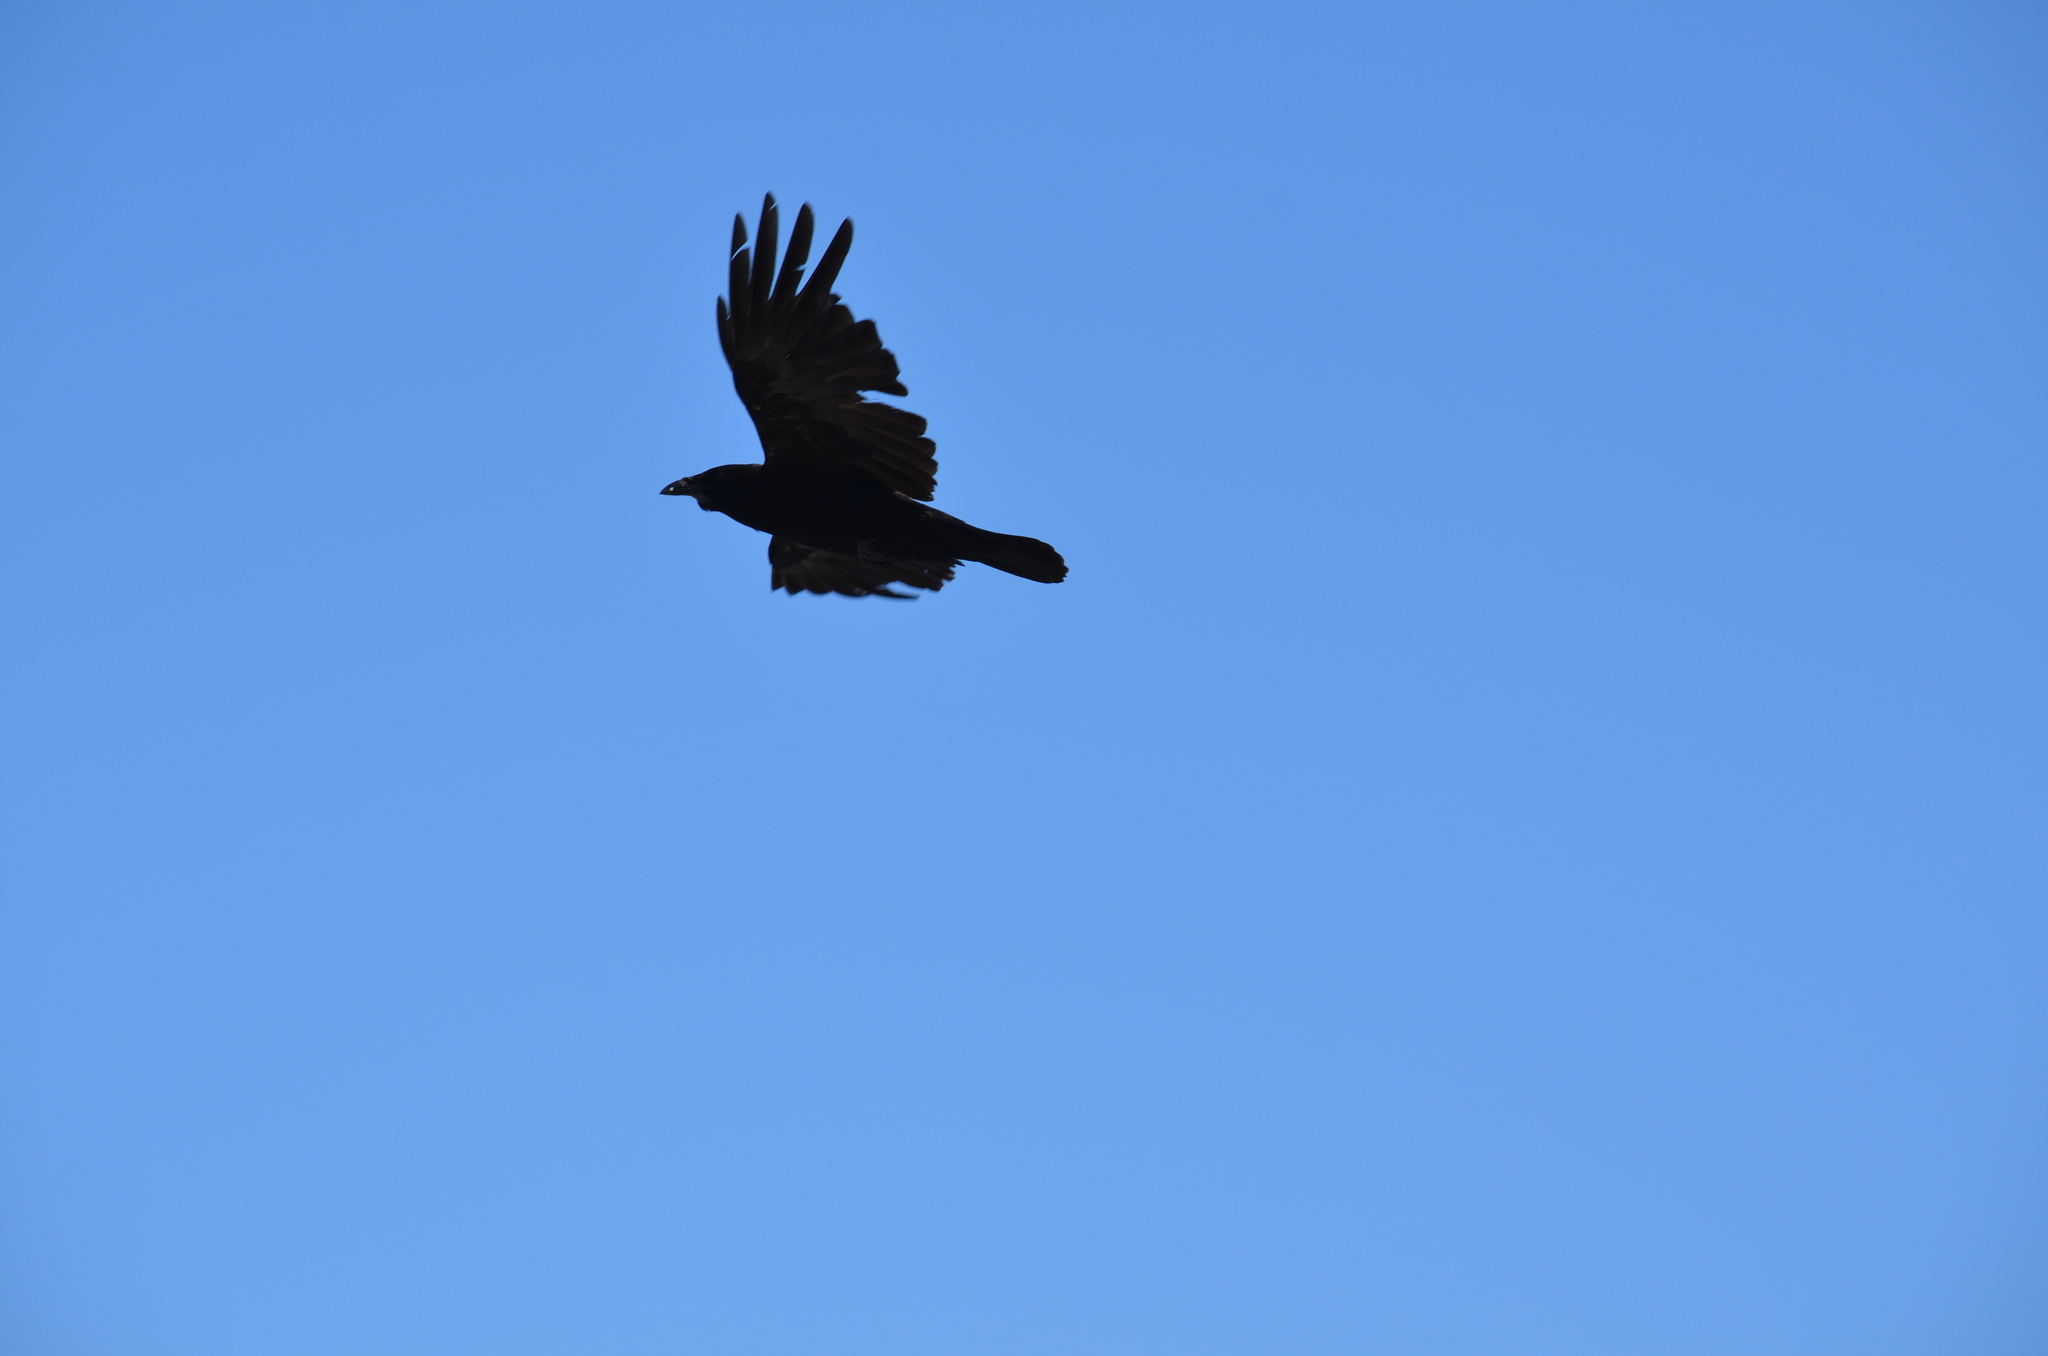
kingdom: Animalia
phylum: Chordata
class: Aves
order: Passeriformes
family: Corvidae
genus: Corvus
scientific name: Corvus corax
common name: Common raven
